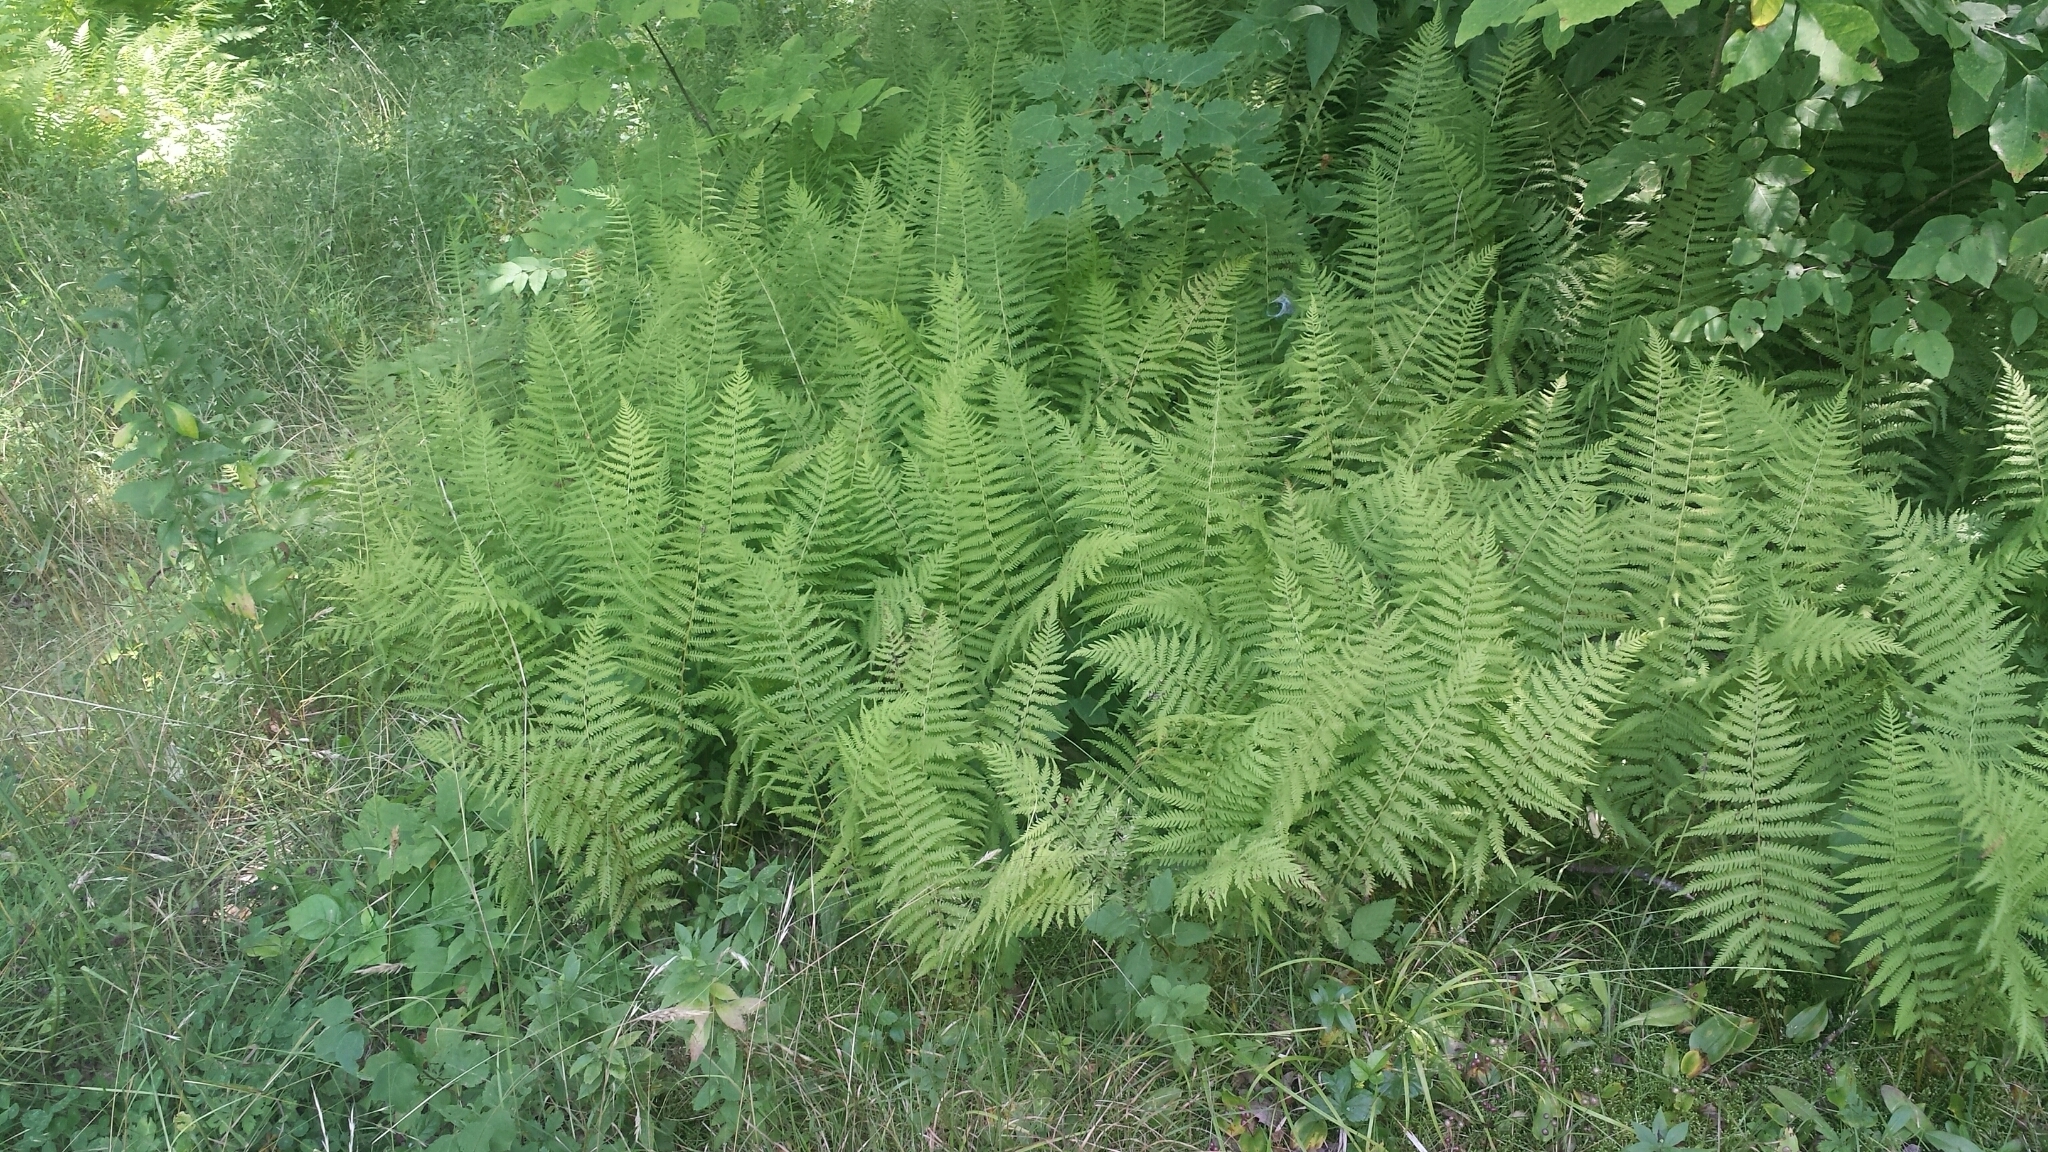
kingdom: Plantae
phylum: Tracheophyta
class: Polypodiopsida
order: Polypodiales
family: Dennstaedtiaceae
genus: Sitobolium
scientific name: Sitobolium punctilobum
